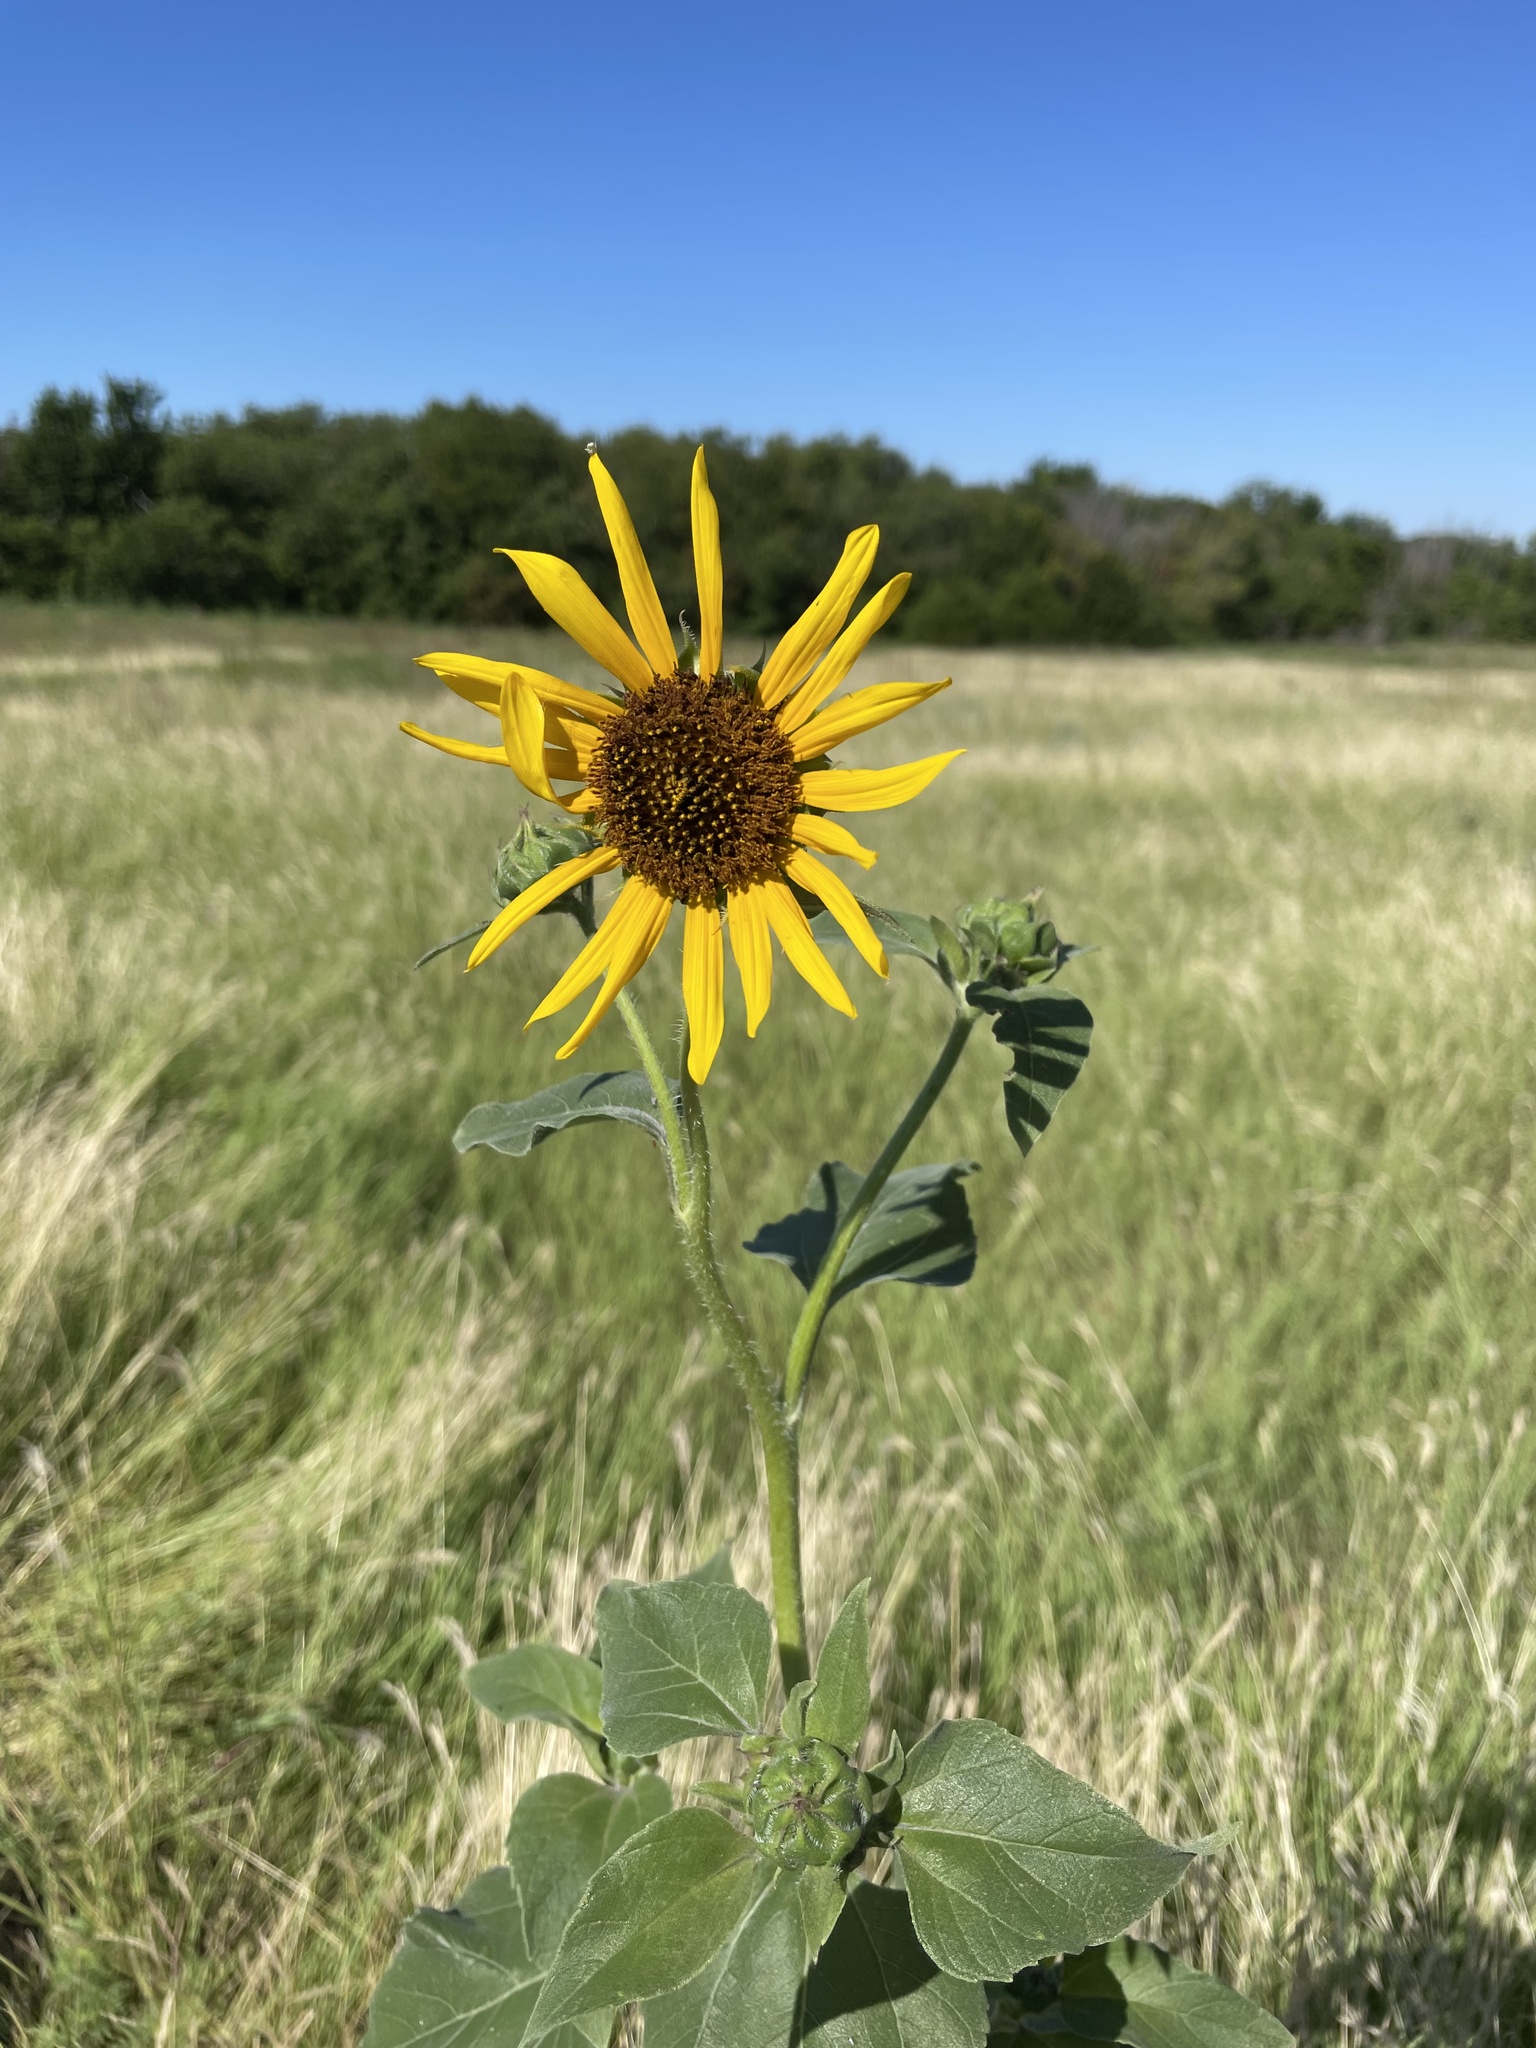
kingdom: Plantae
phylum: Tracheophyta
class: Magnoliopsida
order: Asterales
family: Asteraceae
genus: Helianthus
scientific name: Helianthus annuus
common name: Sunflower
